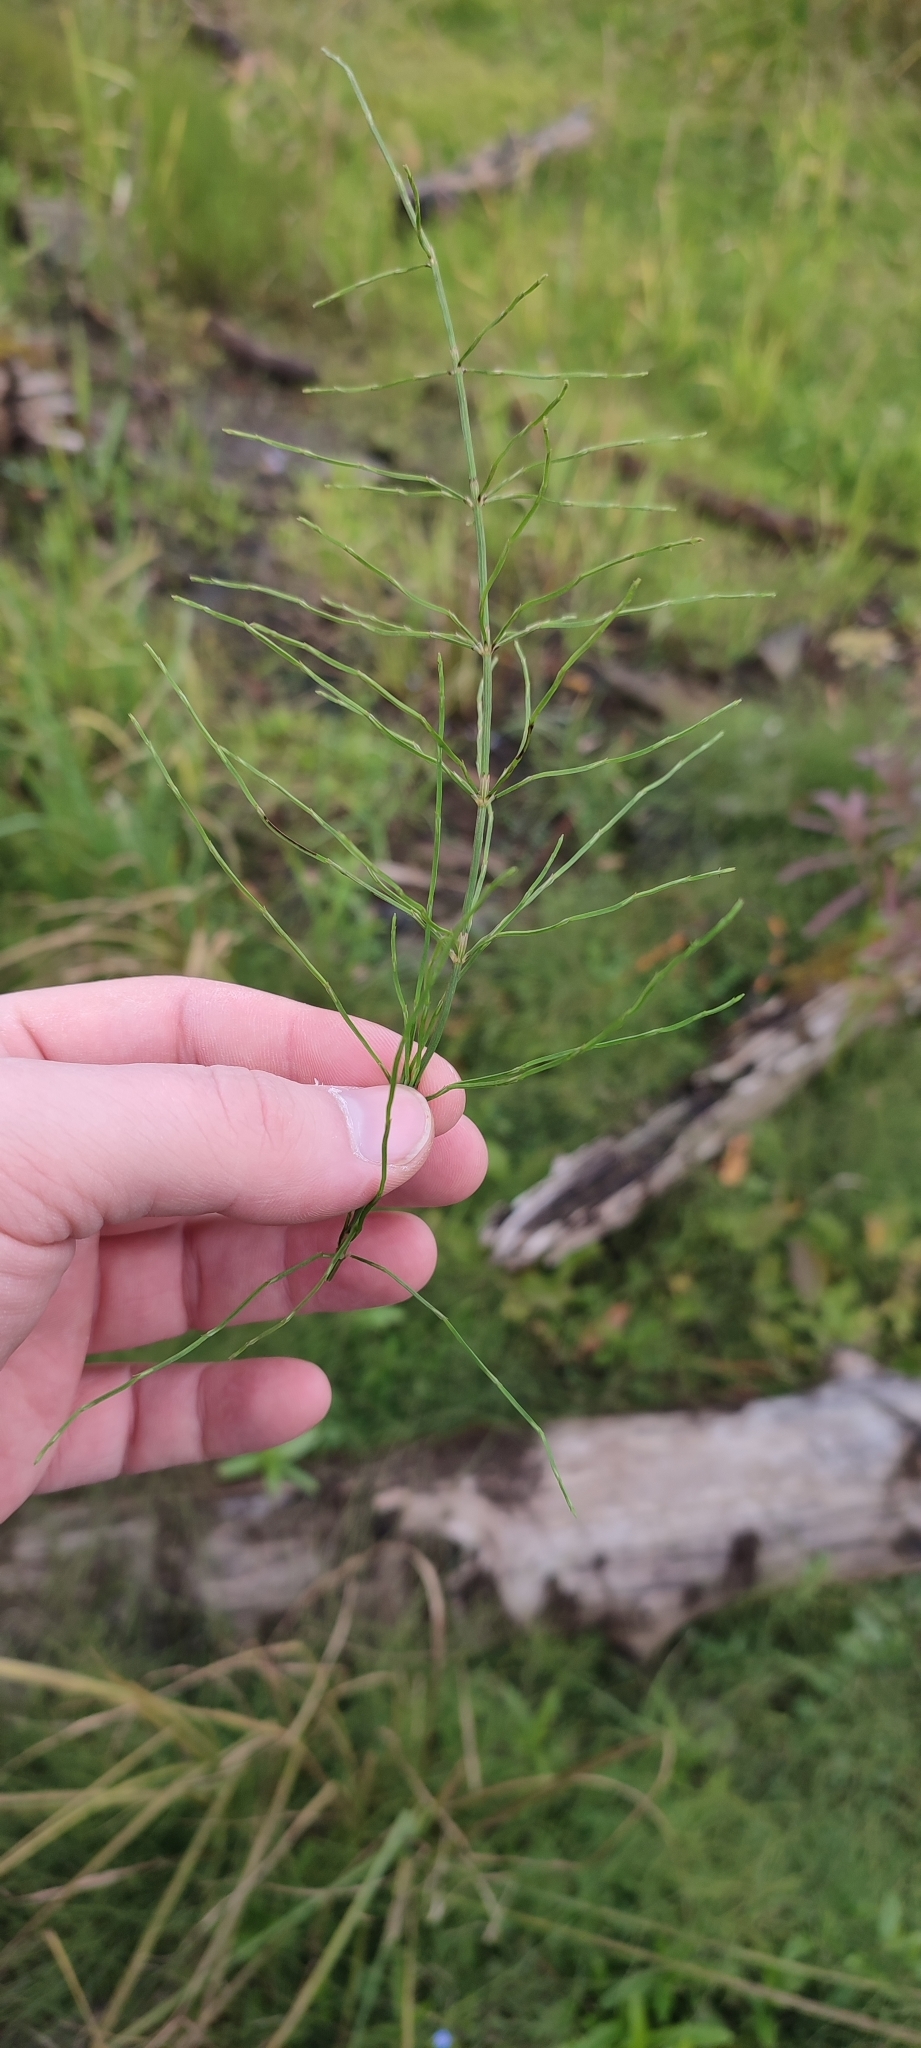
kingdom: Plantae
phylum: Tracheophyta
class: Polypodiopsida
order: Equisetales
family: Equisetaceae
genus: Equisetum
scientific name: Equisetum palustre
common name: Marsh horsetail
